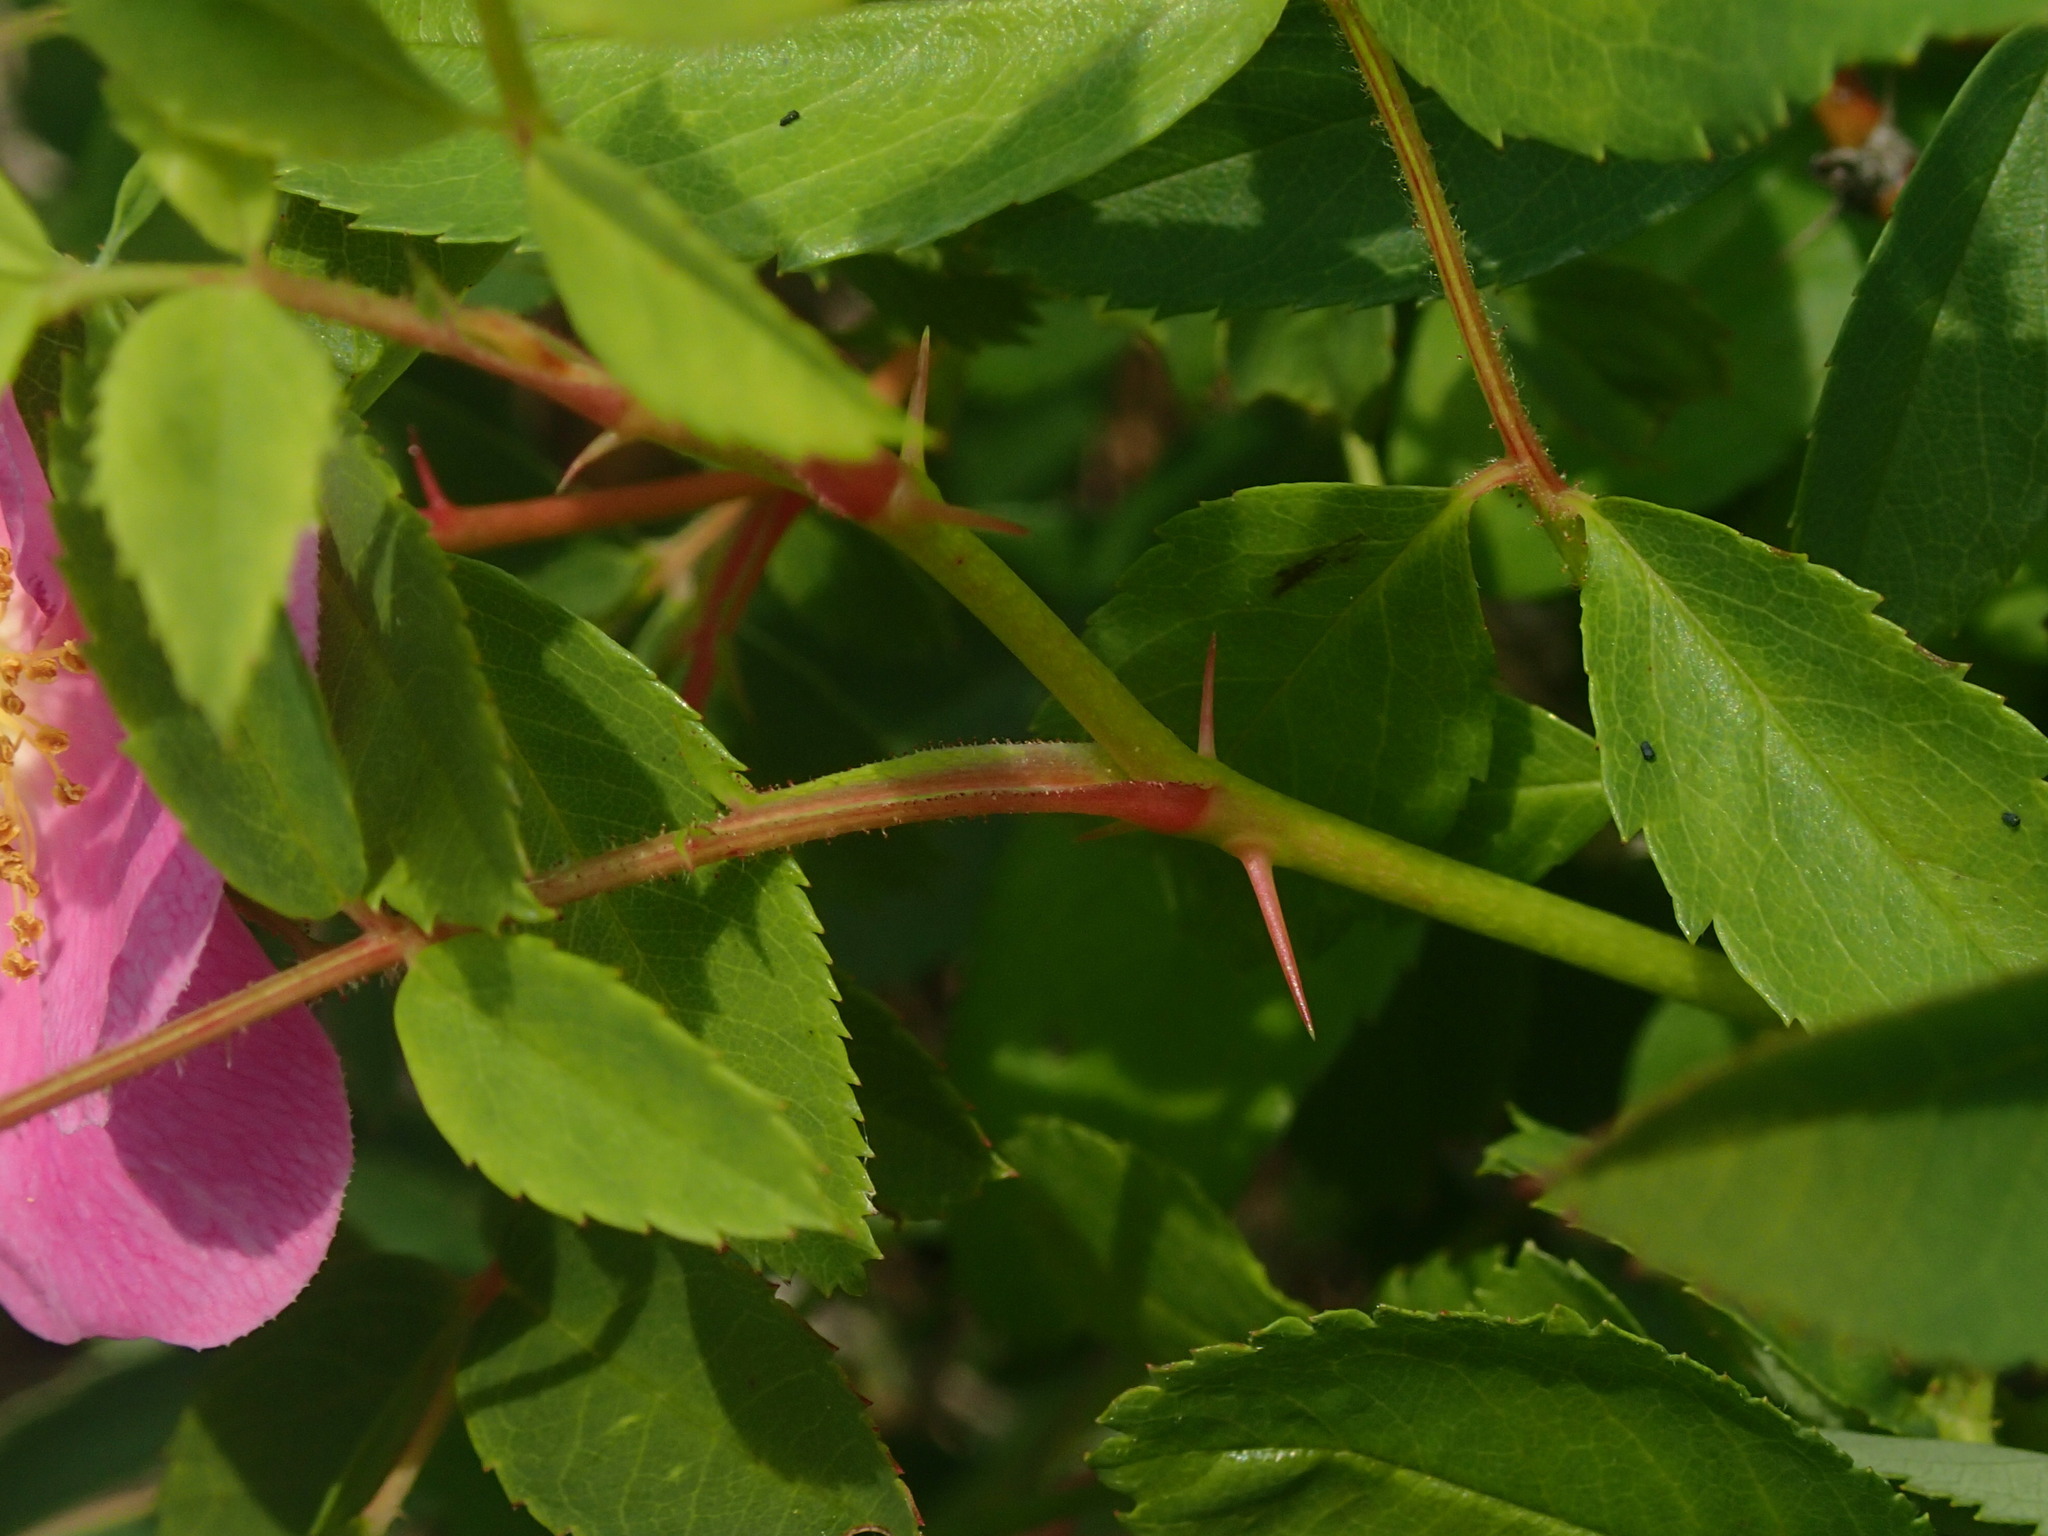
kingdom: Plantae
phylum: Tracheophyta
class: Magnoliopsida
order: Rosales
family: Rosaceae
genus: Rosa
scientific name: Rosa carolina
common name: Pasture rose
